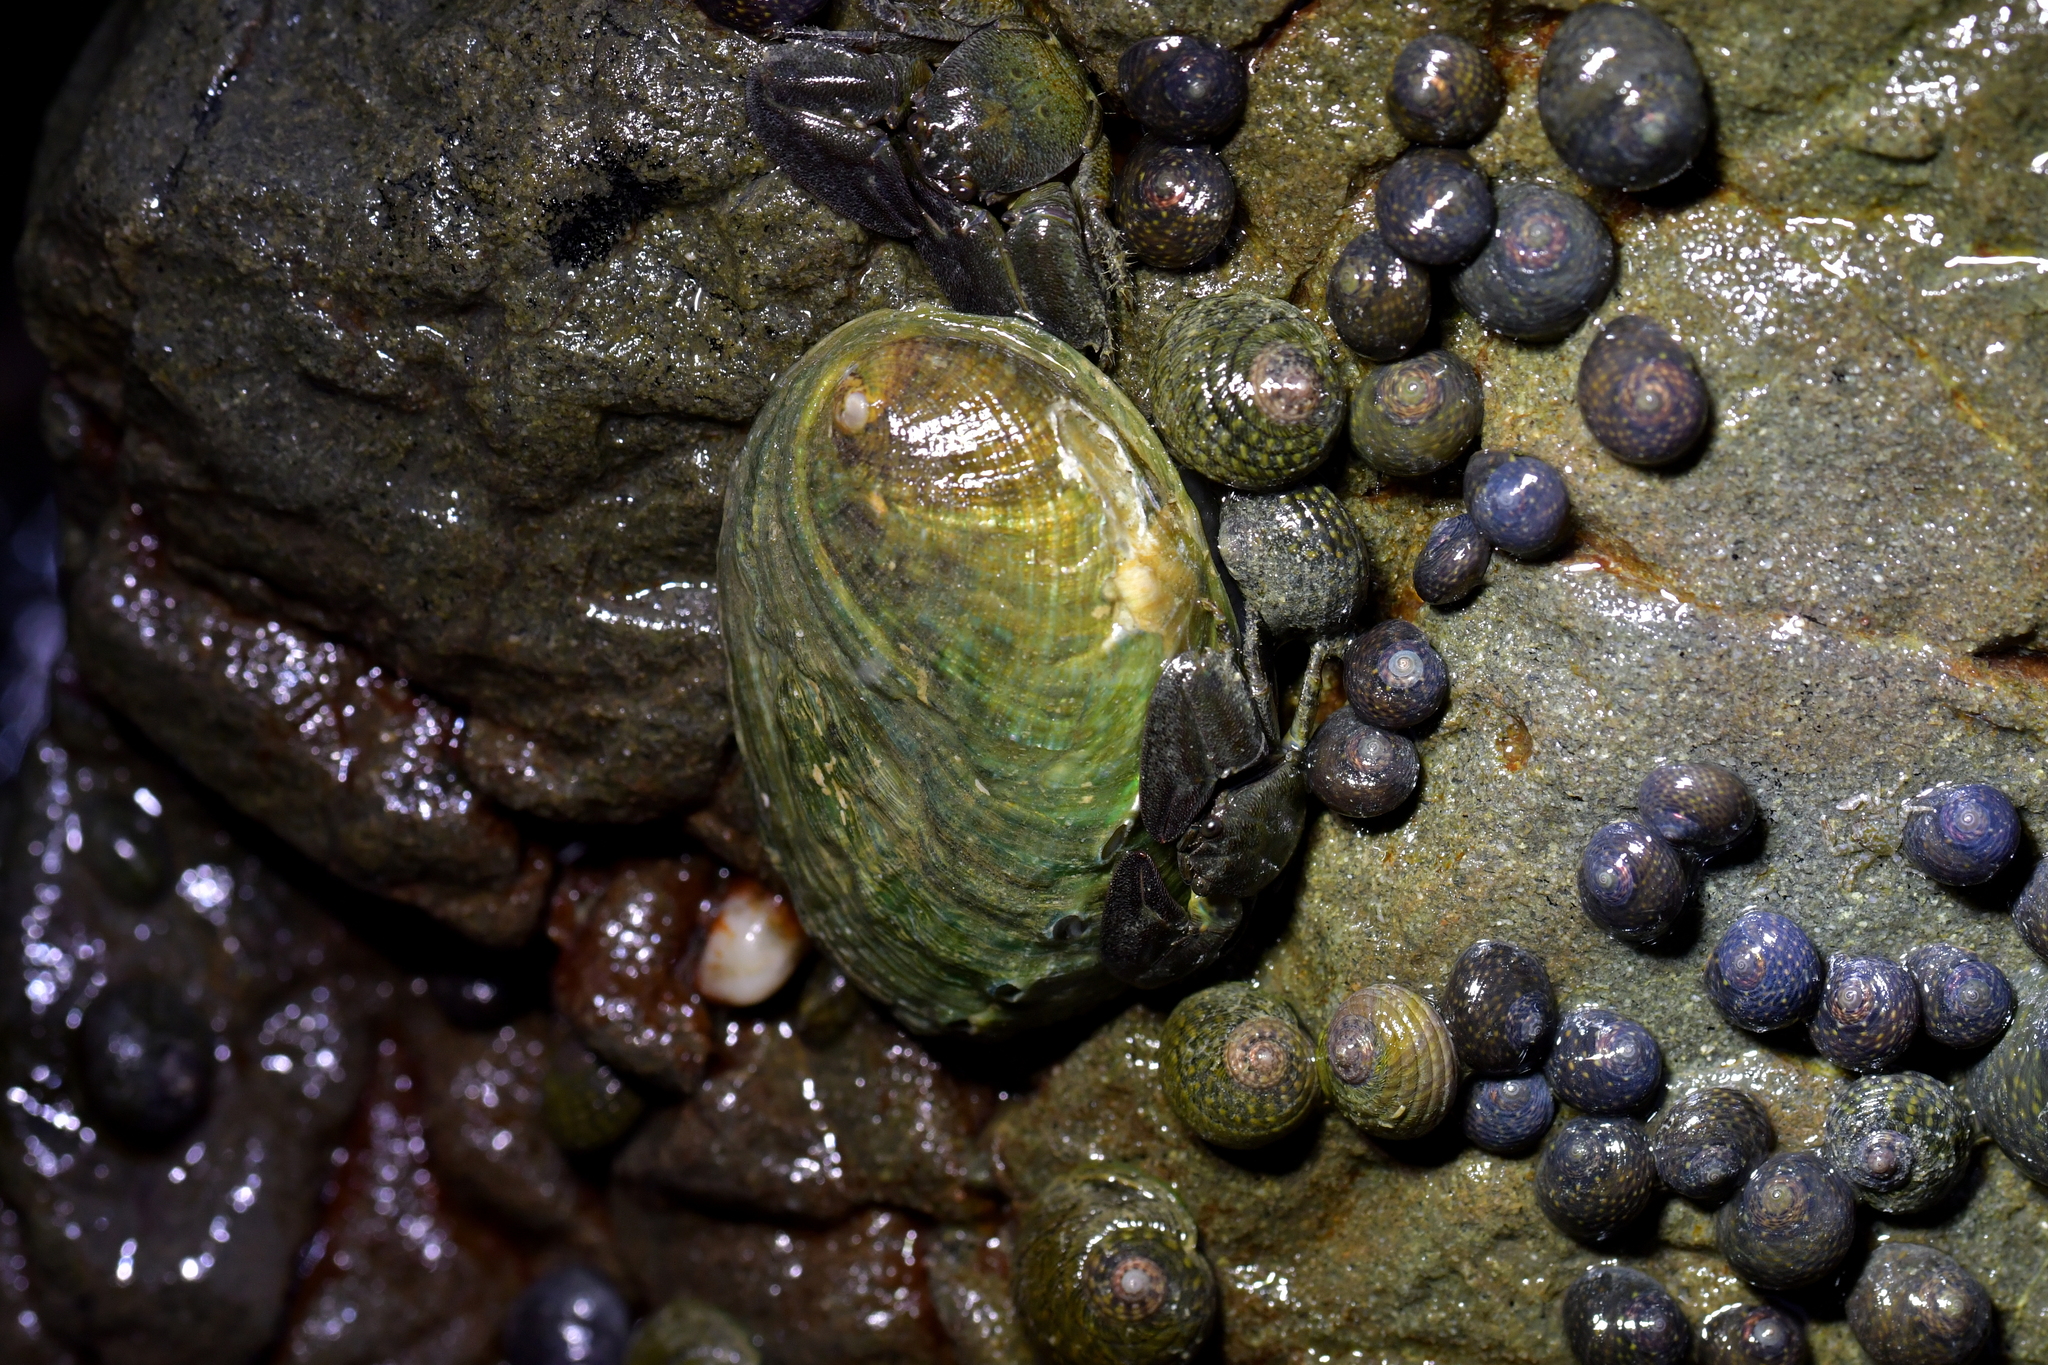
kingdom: Animalia
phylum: Mollusca
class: Gastropoda
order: Lepetellida
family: Haliotidae
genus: Haliotis
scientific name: Haliotis iris
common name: Abalone
